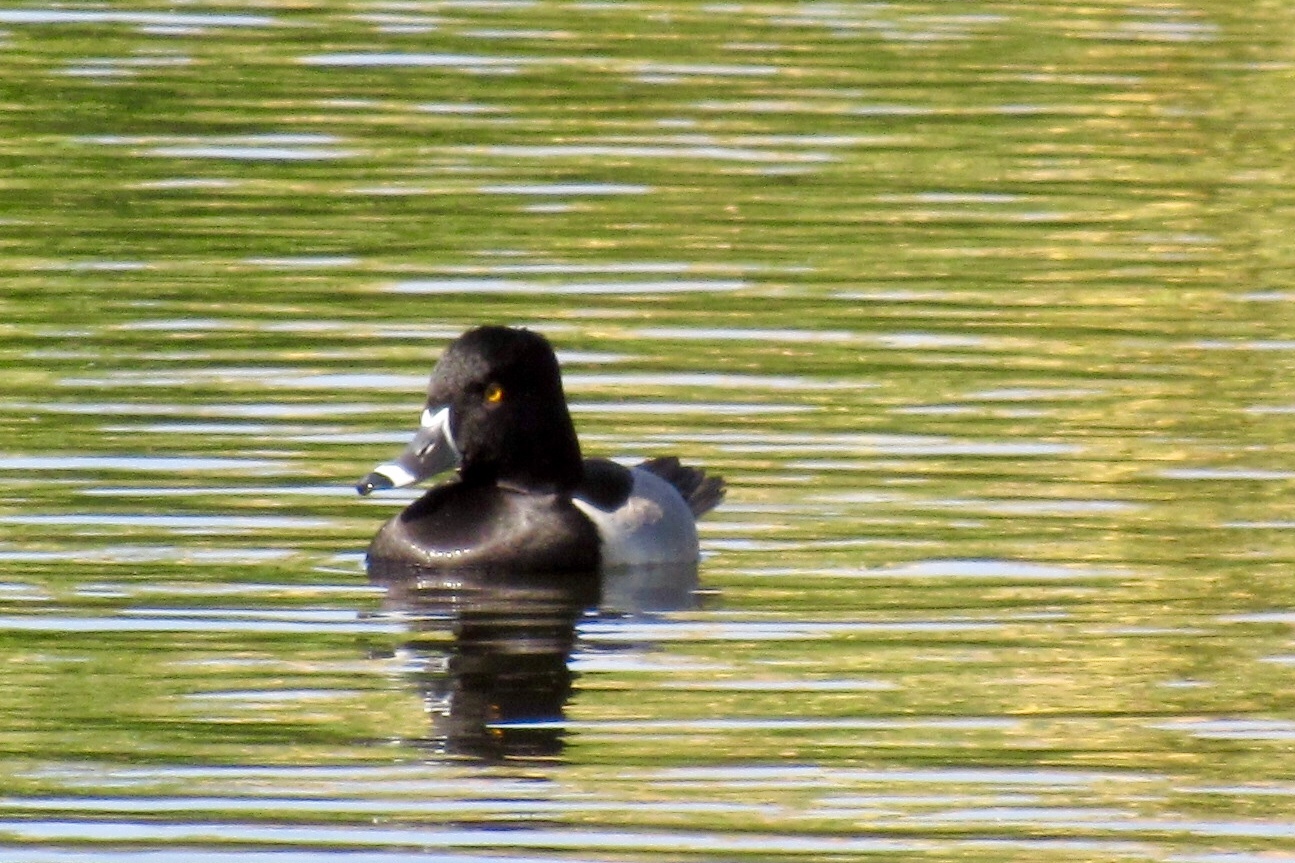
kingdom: Animalia
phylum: Chordata
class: Aves
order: Anseriformes
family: Anatidae
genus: Aythya
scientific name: Aythya collaris
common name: Ring-necked duck
